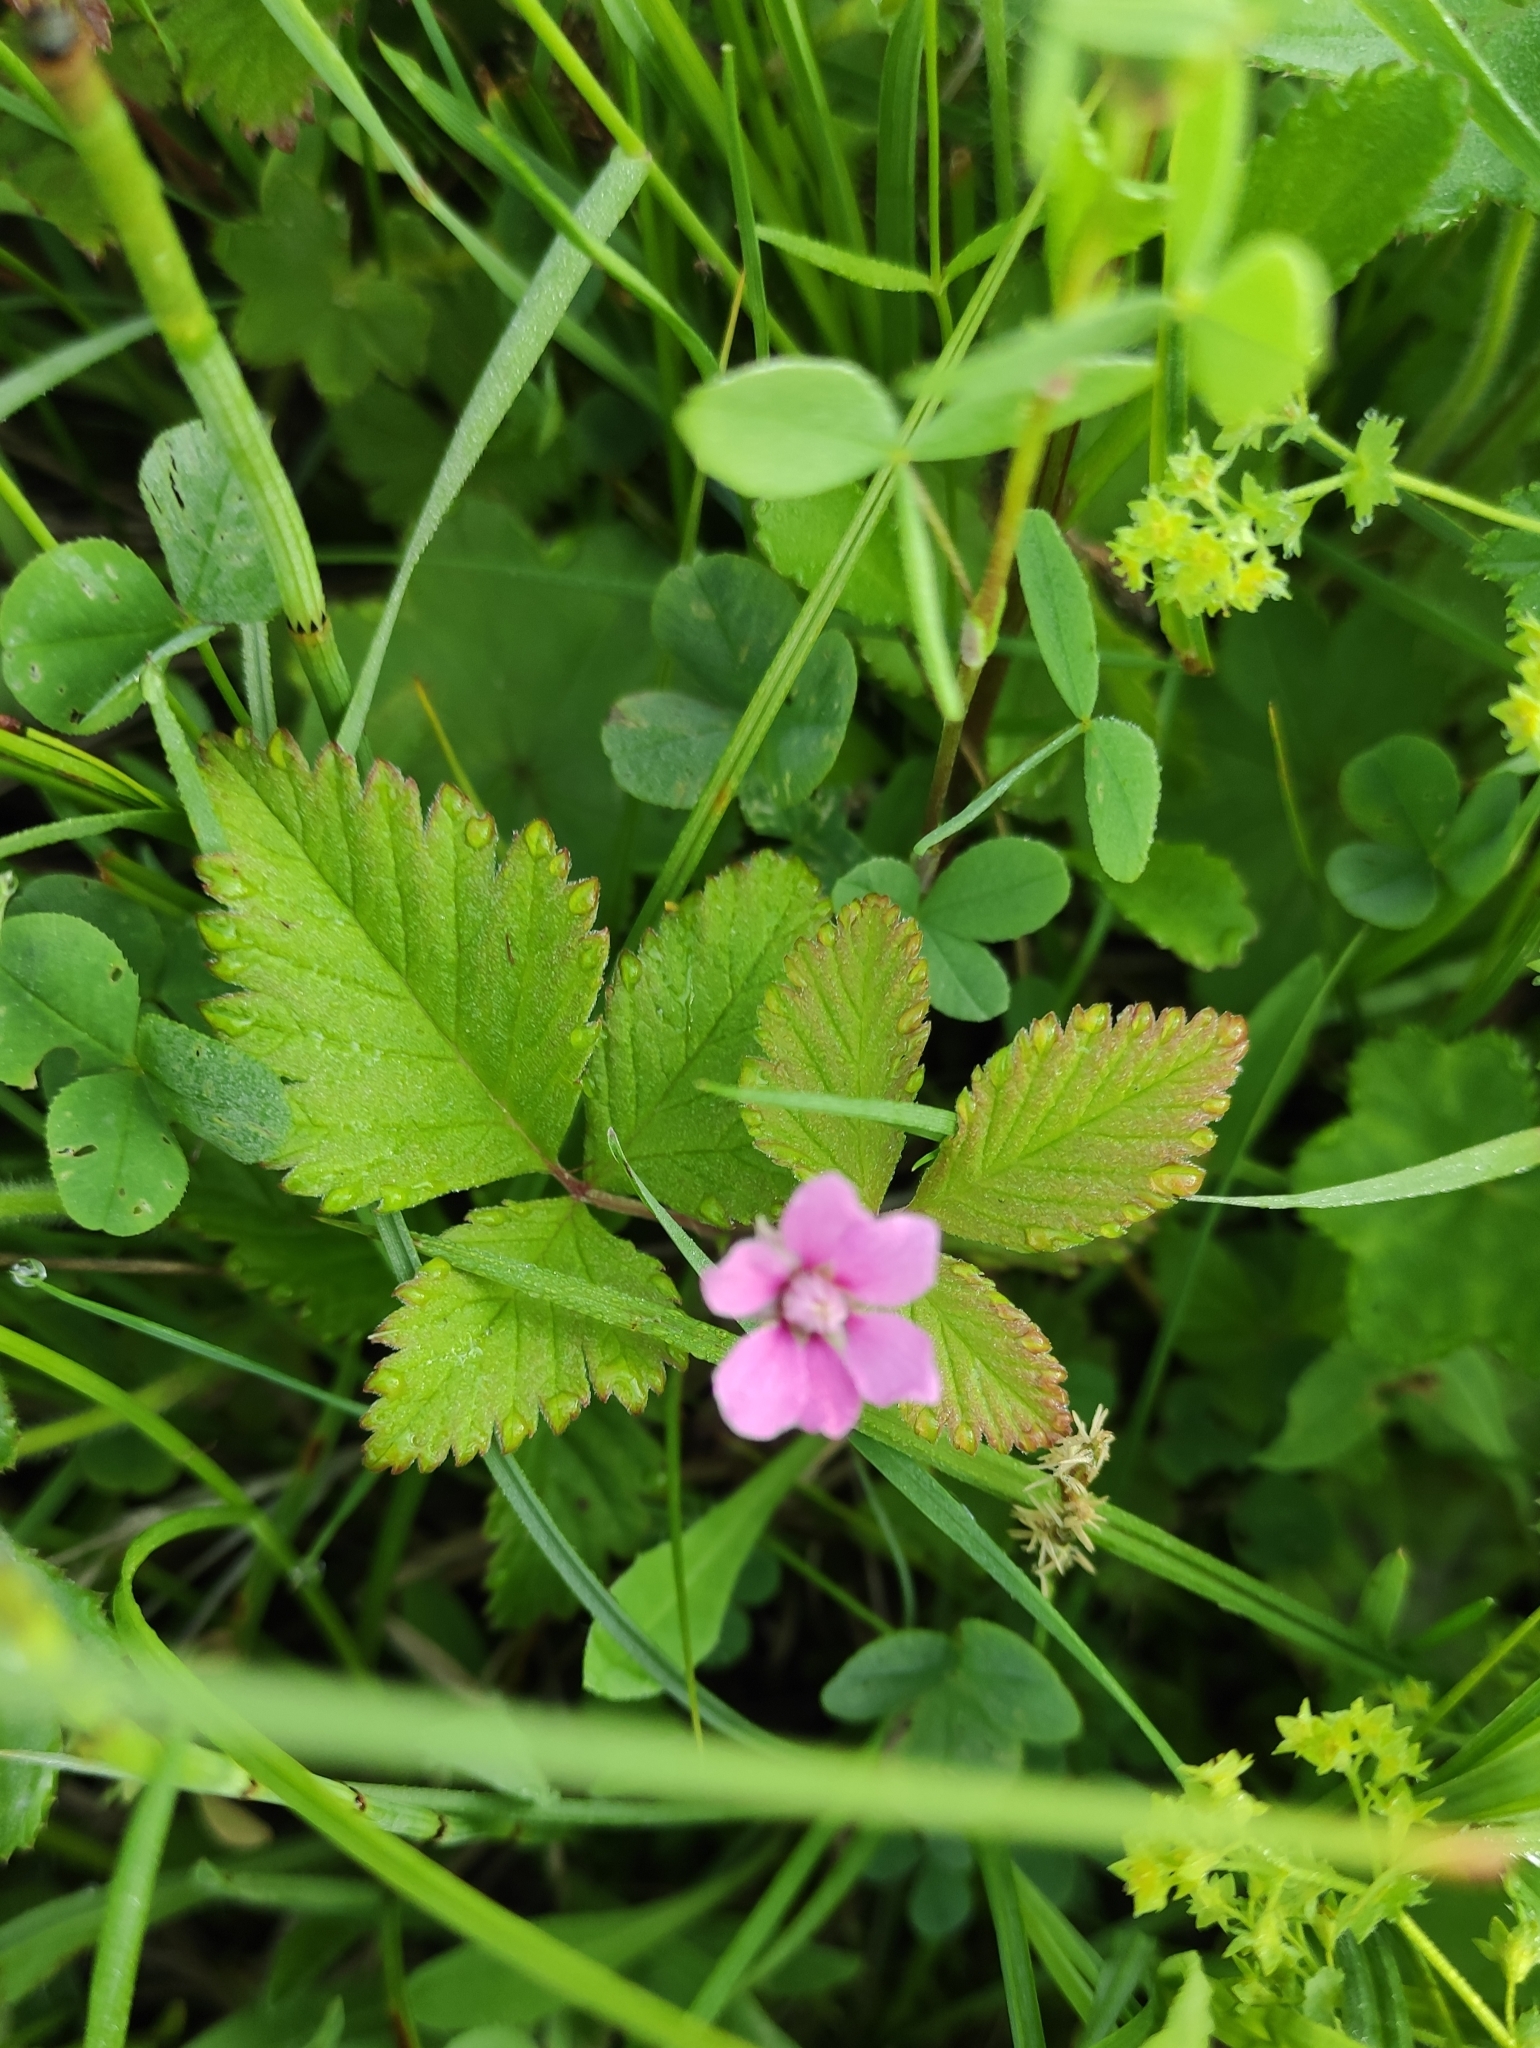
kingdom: Plantae
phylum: Tracheophyta
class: Magnoliopsida
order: Rosales
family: Rosaceae
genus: Rubus
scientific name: Rubus arcticus
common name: Arctic bramble
